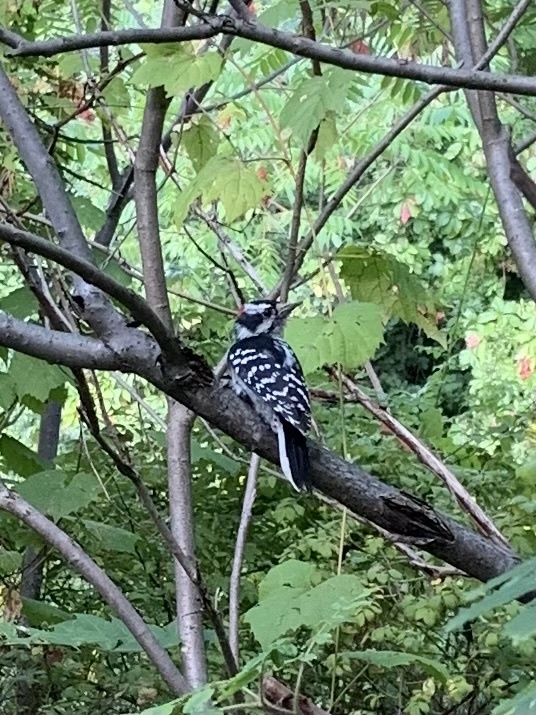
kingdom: Animalia
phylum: Chordata
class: Aves
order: Piciformes
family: Picidae
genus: Leuconotopicus
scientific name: Leuconotopicus villosus
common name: Hairy woodpecker
